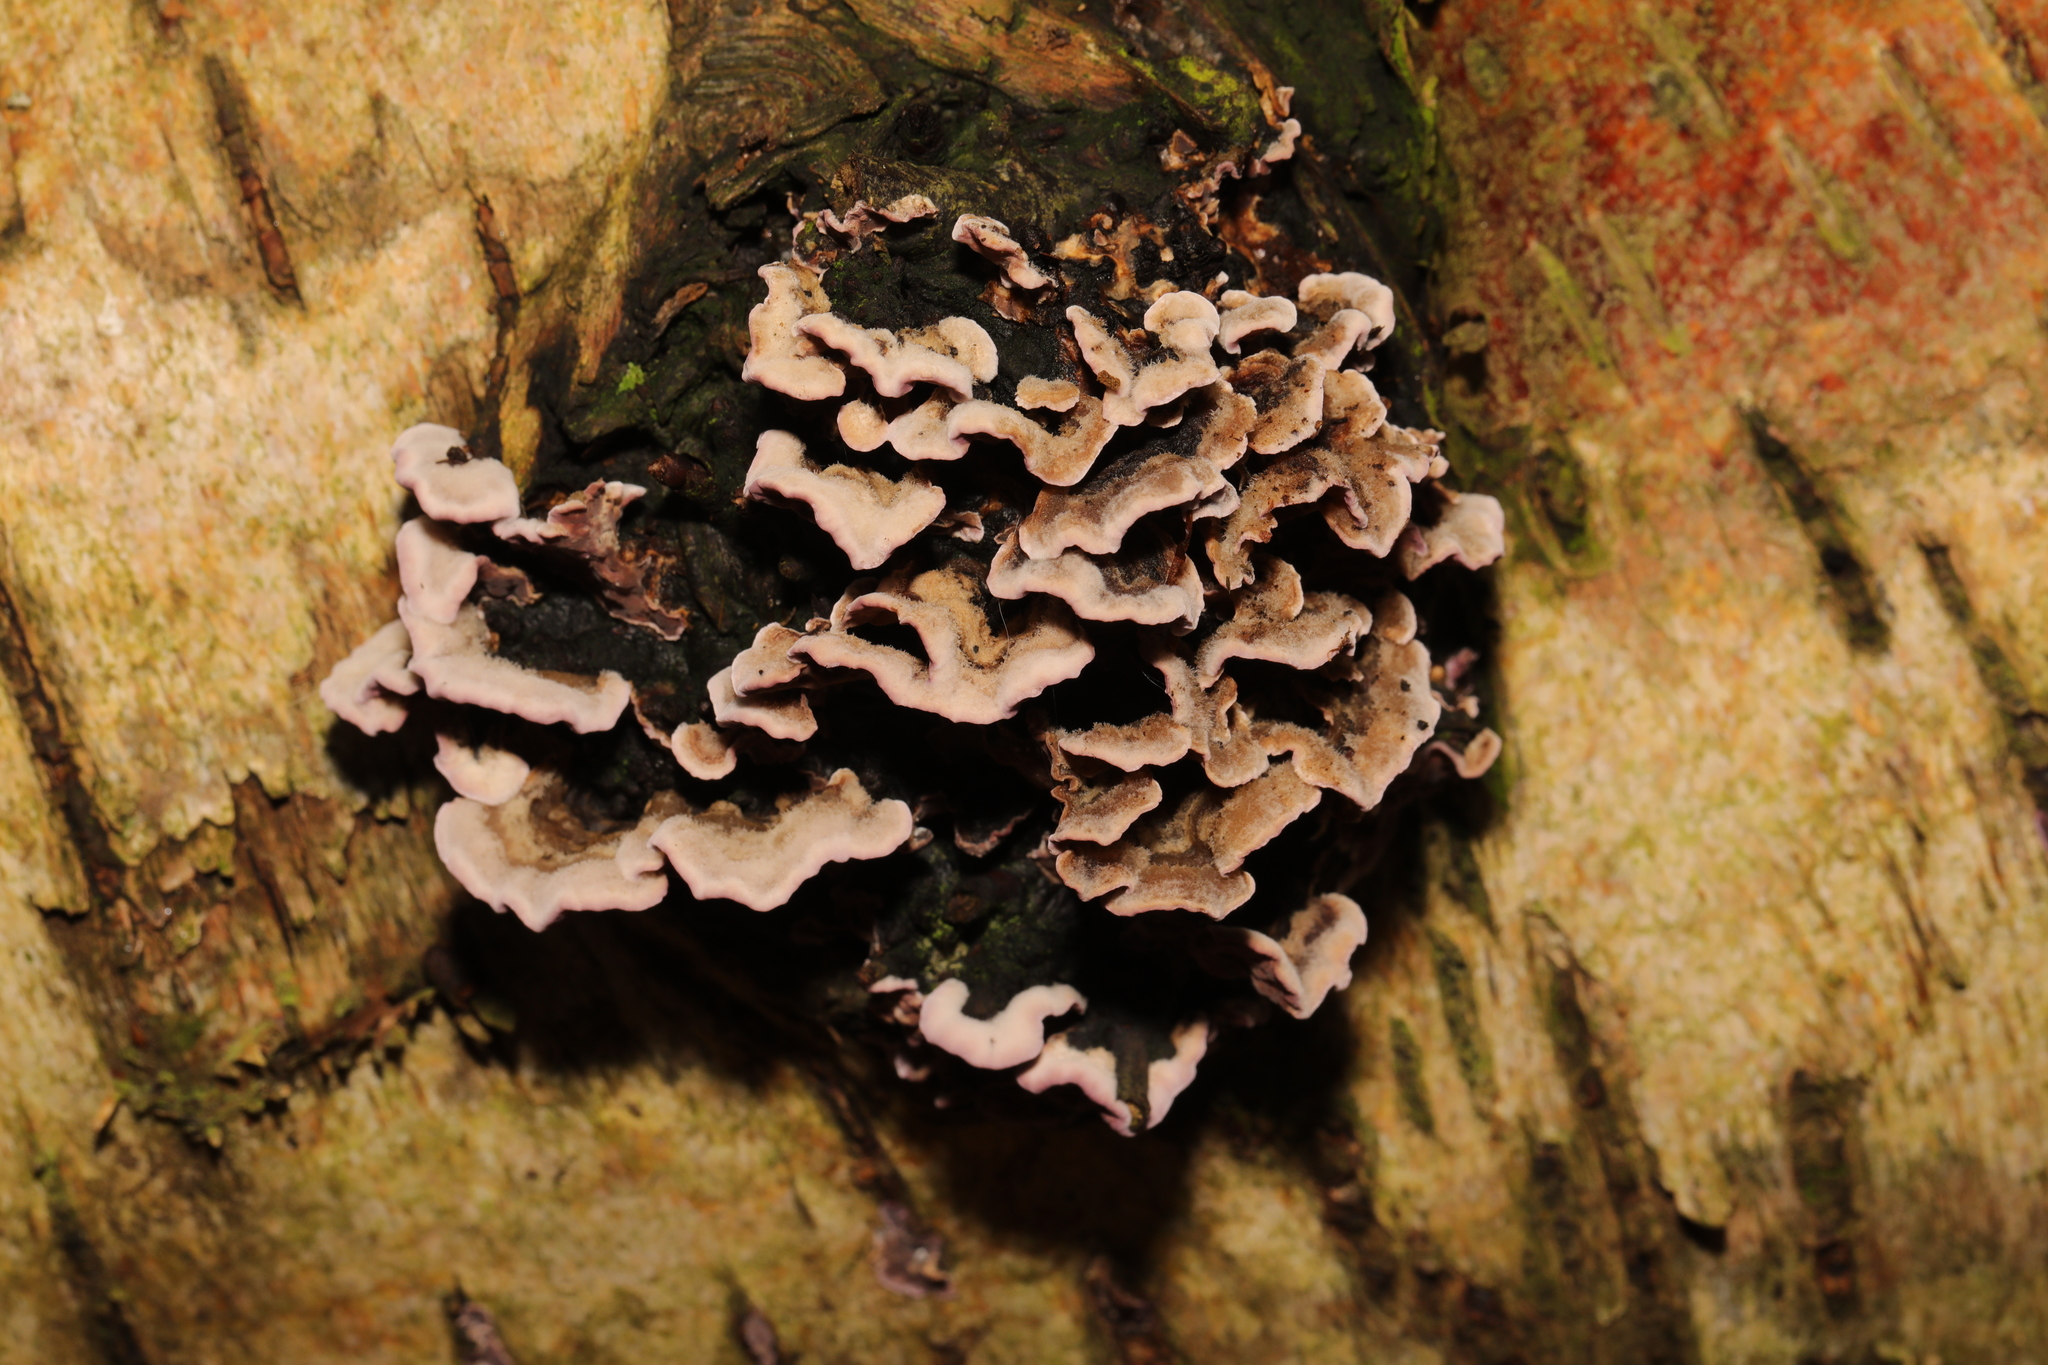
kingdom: Fungi
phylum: Basidiomycota
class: Agaricomycetes
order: Agaricales
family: Cyphellaceae
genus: Chondrostereum
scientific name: Chondrostereum purpureum
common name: Silver leaf disease
